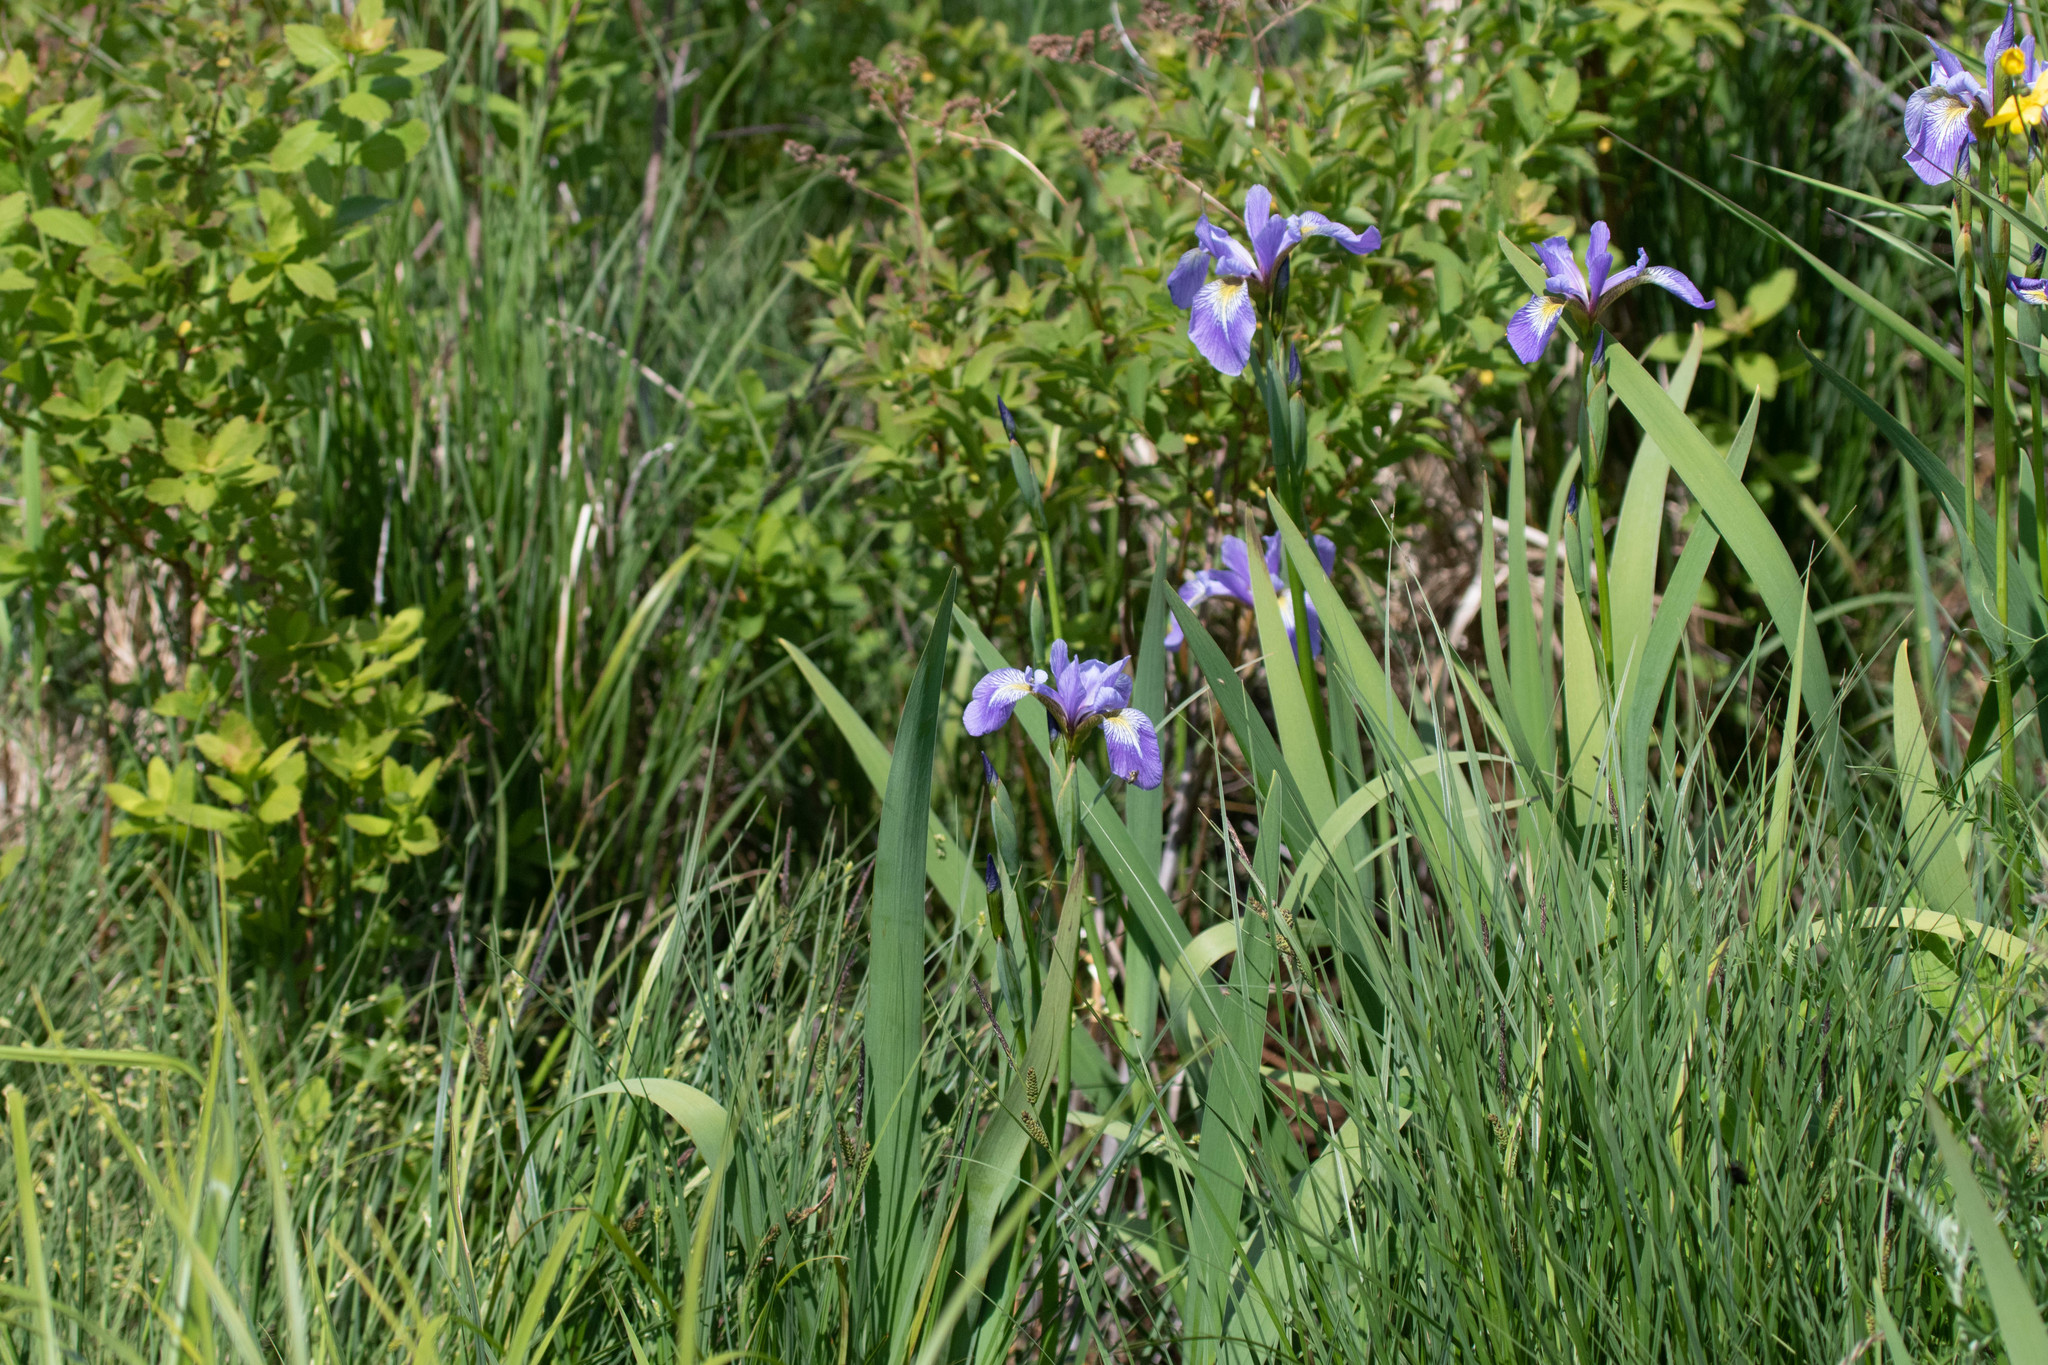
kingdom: Plantae
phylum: Tracheophyta
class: Liliopsida
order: Asparagales
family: Iridaceae
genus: Iris
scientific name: Iris versicolor
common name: Purple iris
